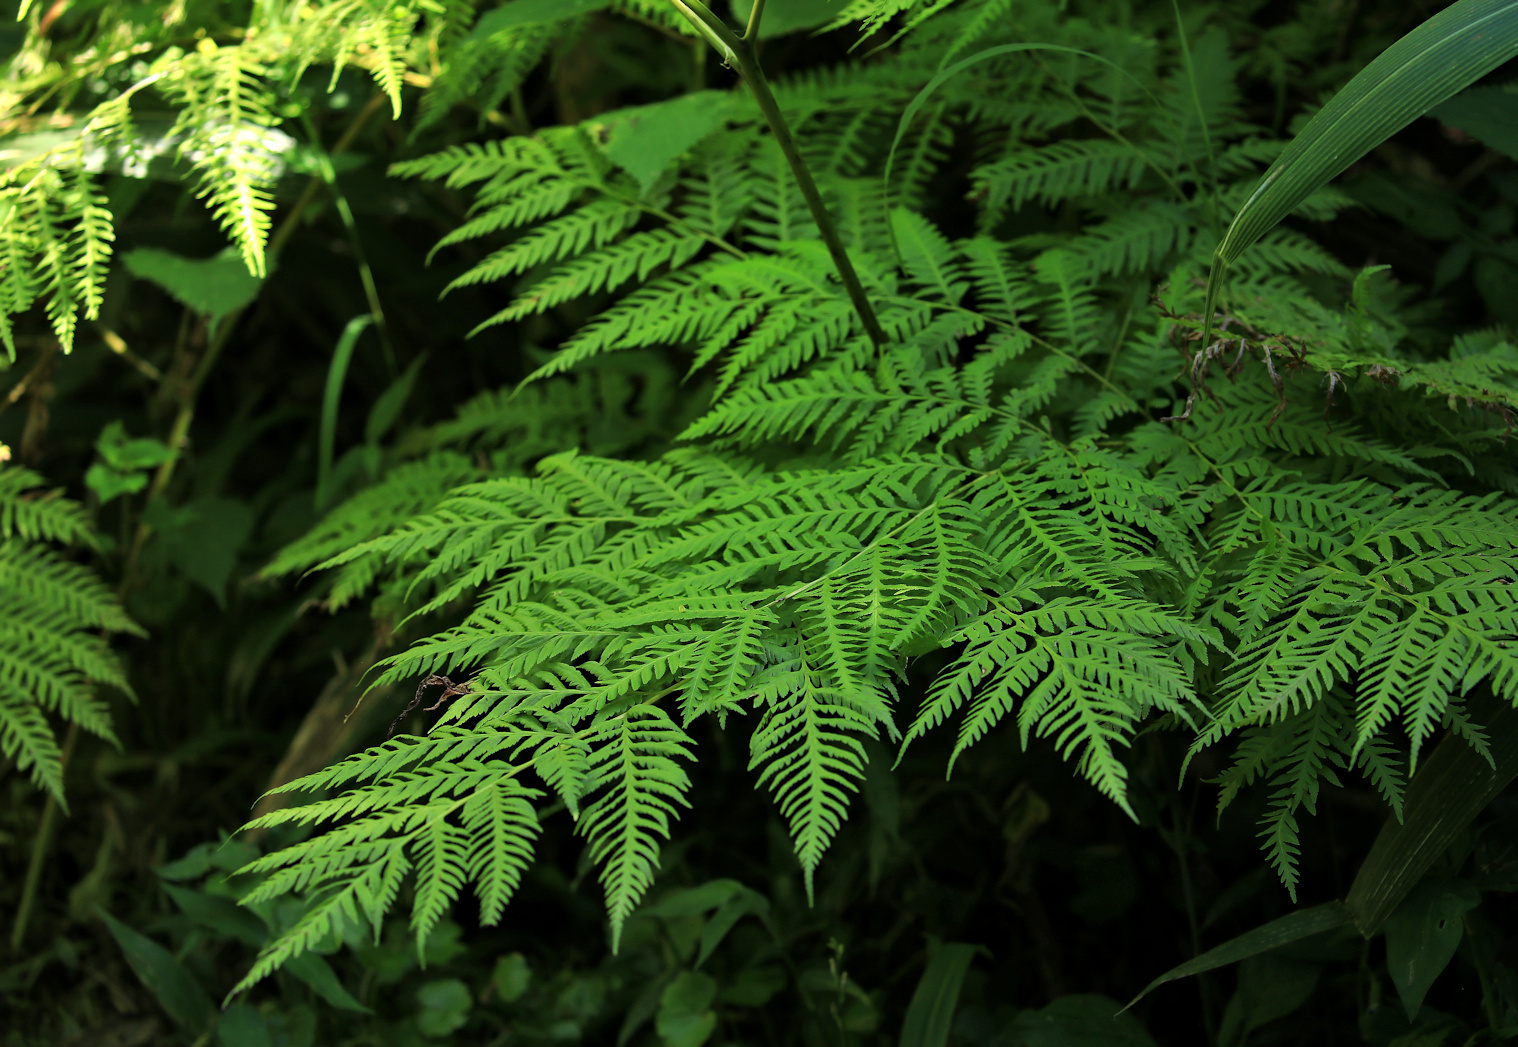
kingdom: Plantae
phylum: Tracheophyta
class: Polypodiopsida
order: Polypodiales
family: Pteridaceae
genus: Pteris
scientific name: Pteris tremula
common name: Australian brake
